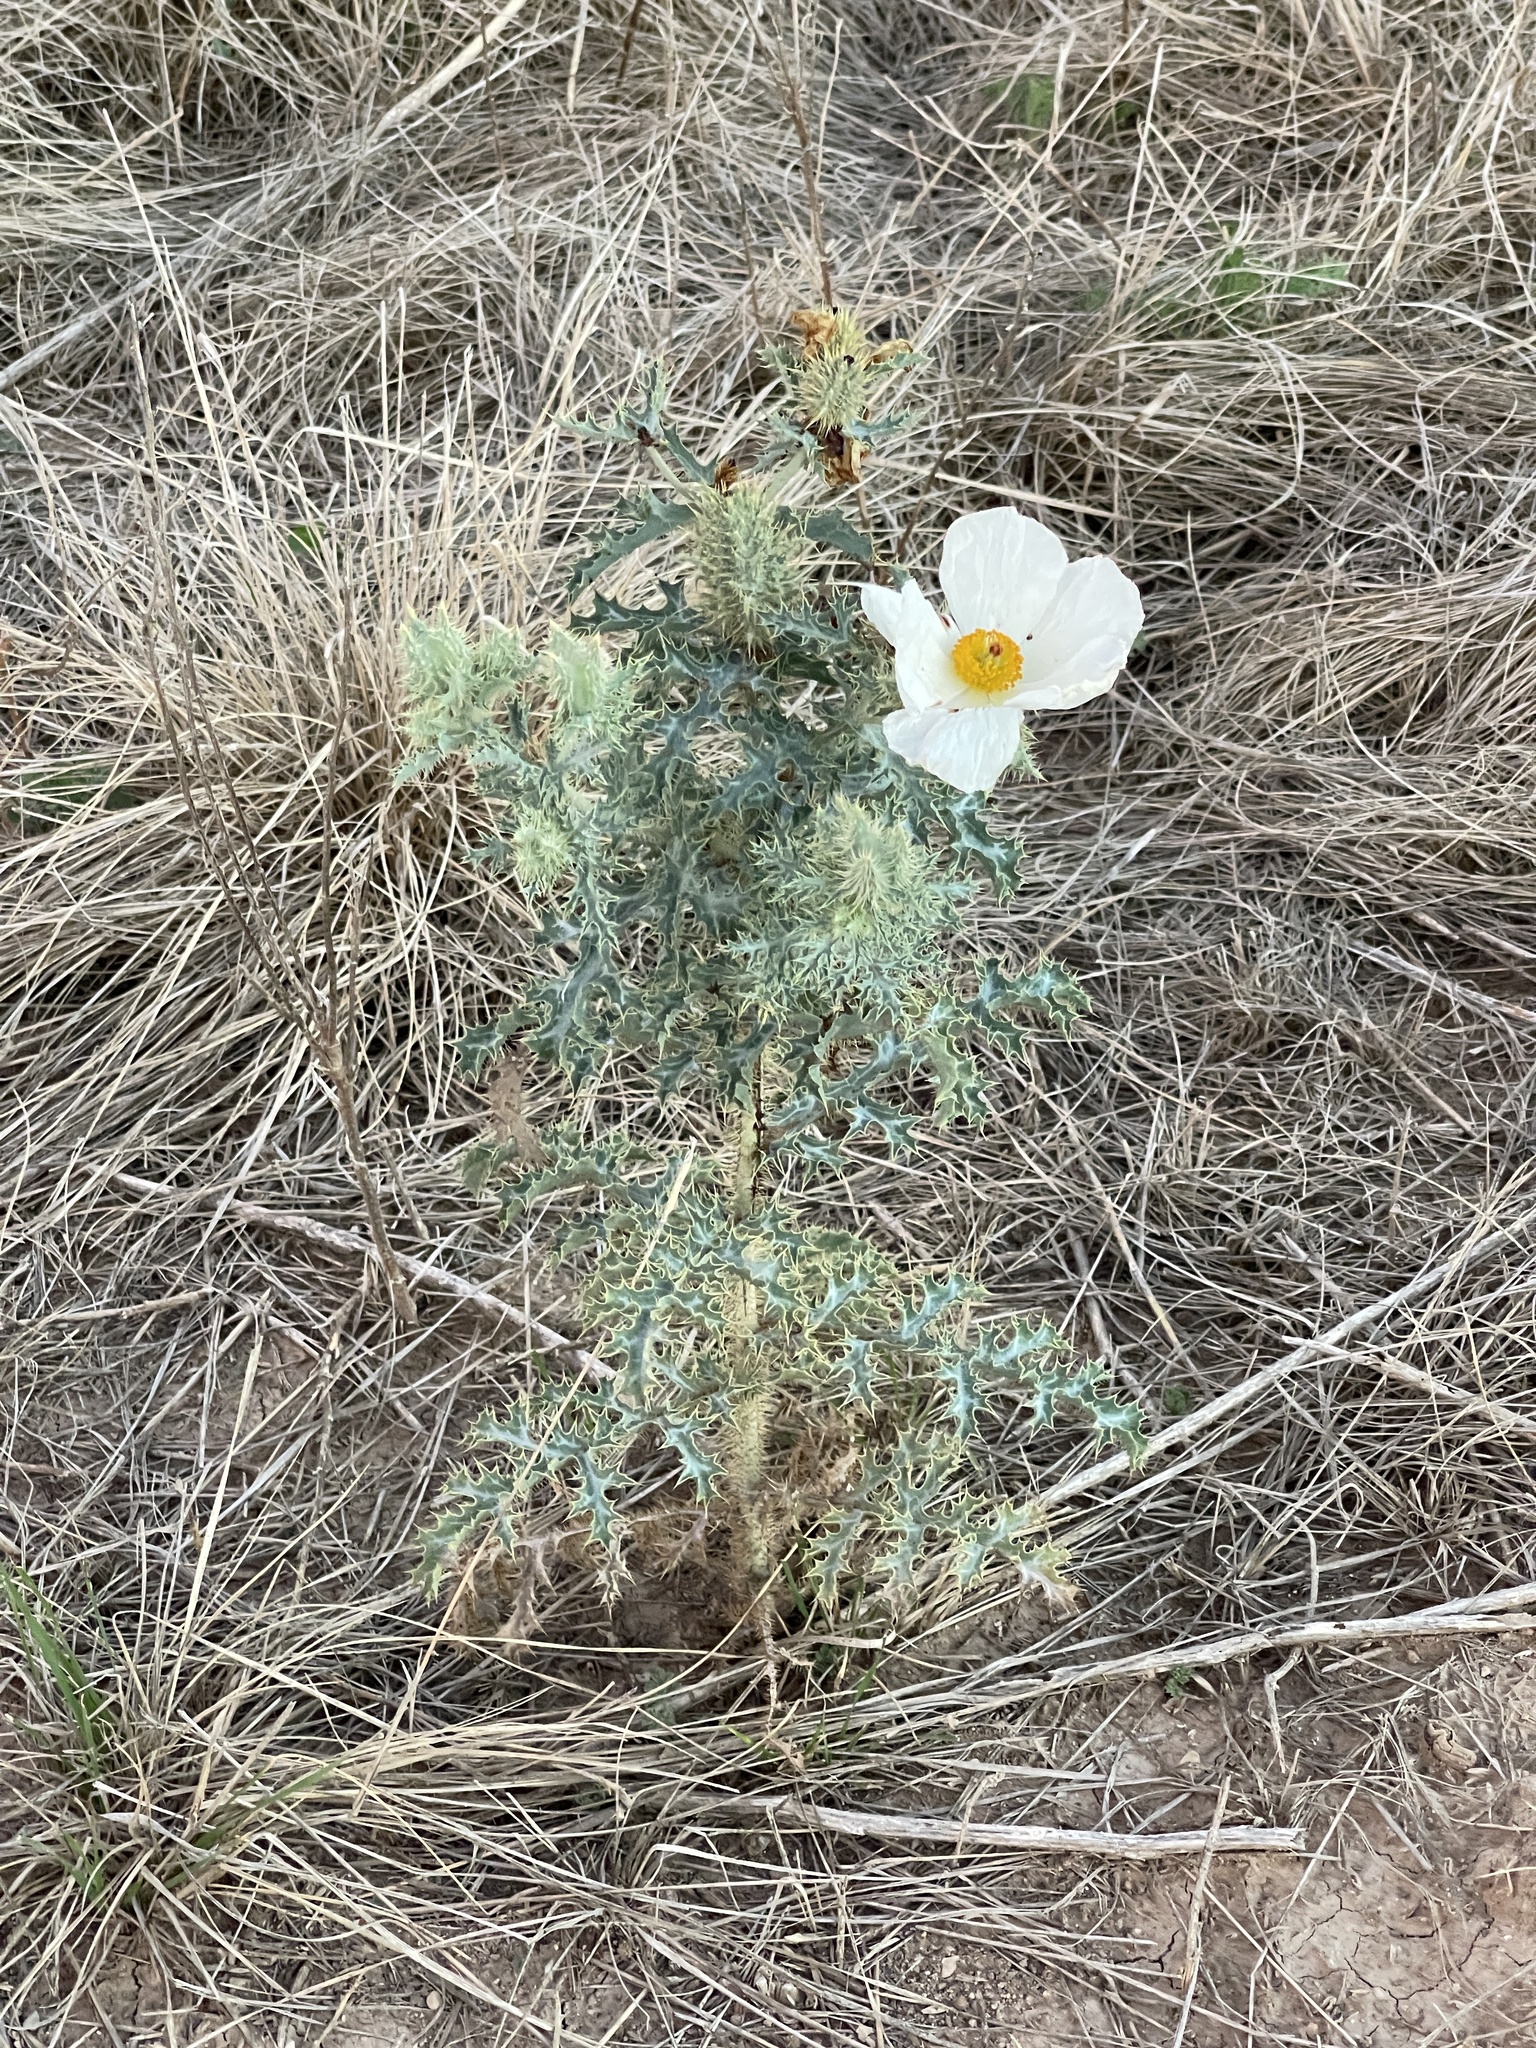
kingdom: Plantae
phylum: Tracheophyta
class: Magnoliopsida
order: Ranunculales
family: Papaveraceae
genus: Argemone
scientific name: Argemone polyanthemos
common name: Plains prickly-poppy
